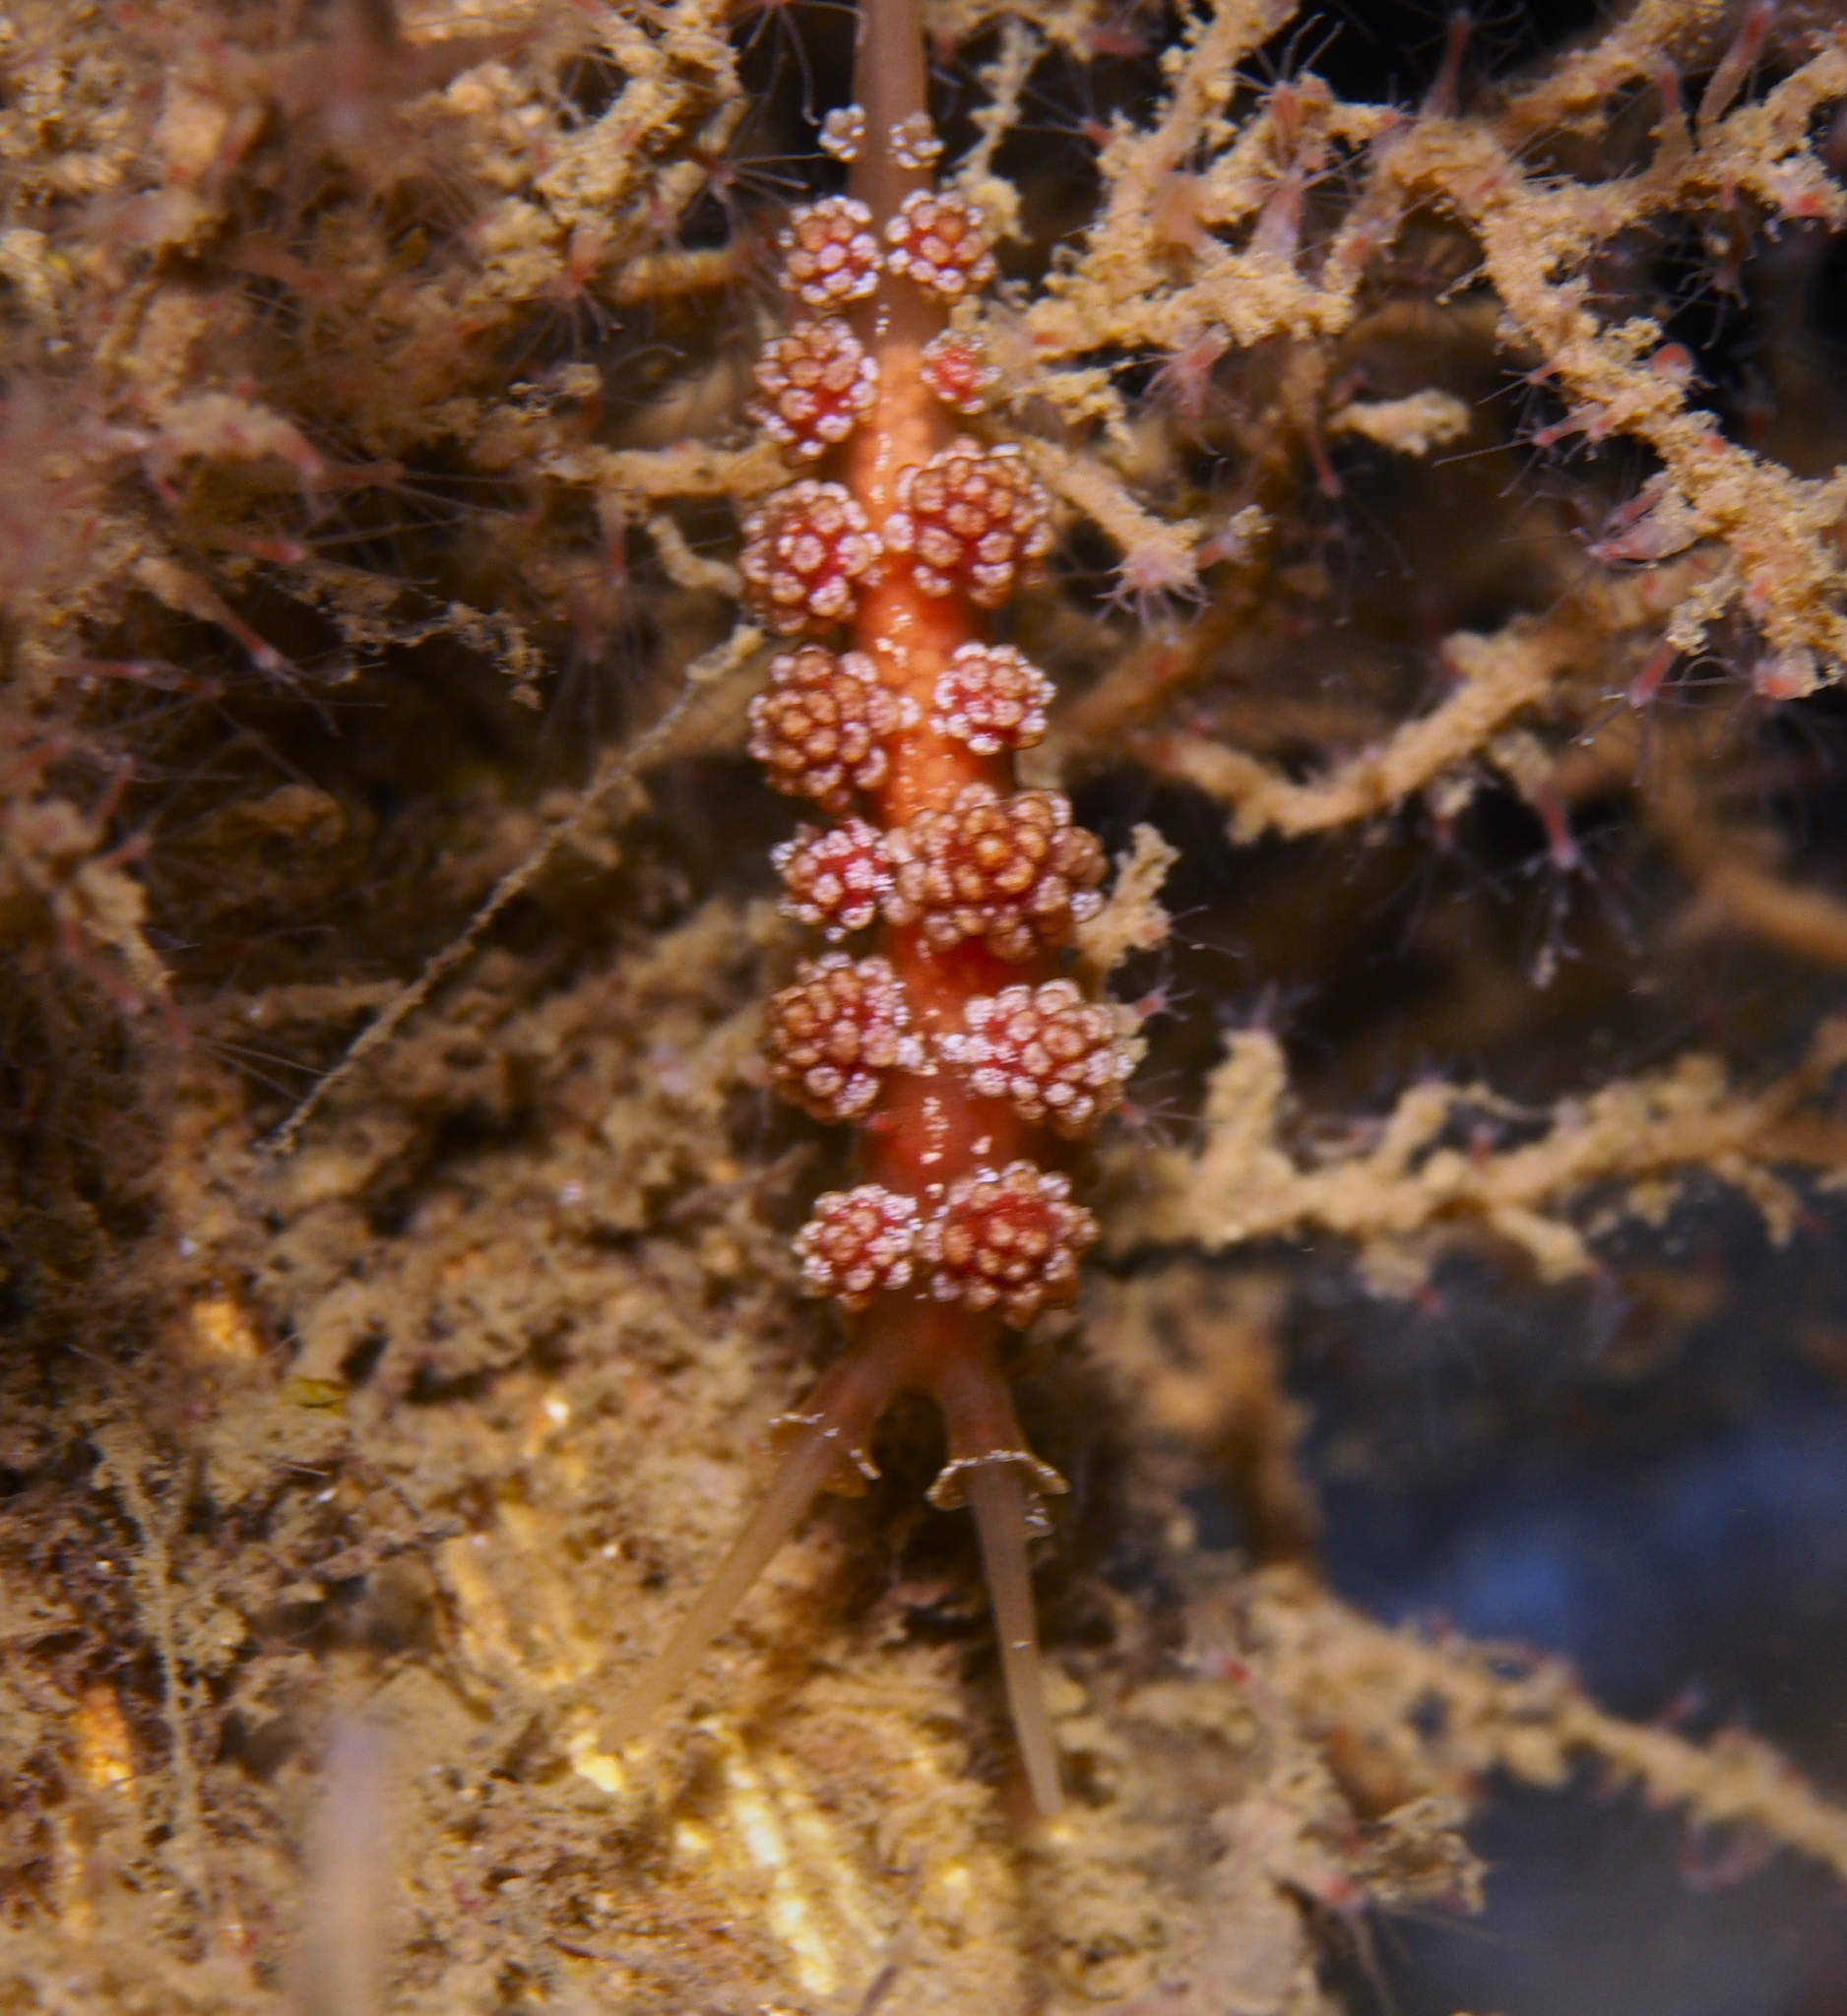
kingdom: Animalia
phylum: Mollusca
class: Gastropoda
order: Nudibranchia
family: Dotidae
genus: Doto
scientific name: Doto fragilis
